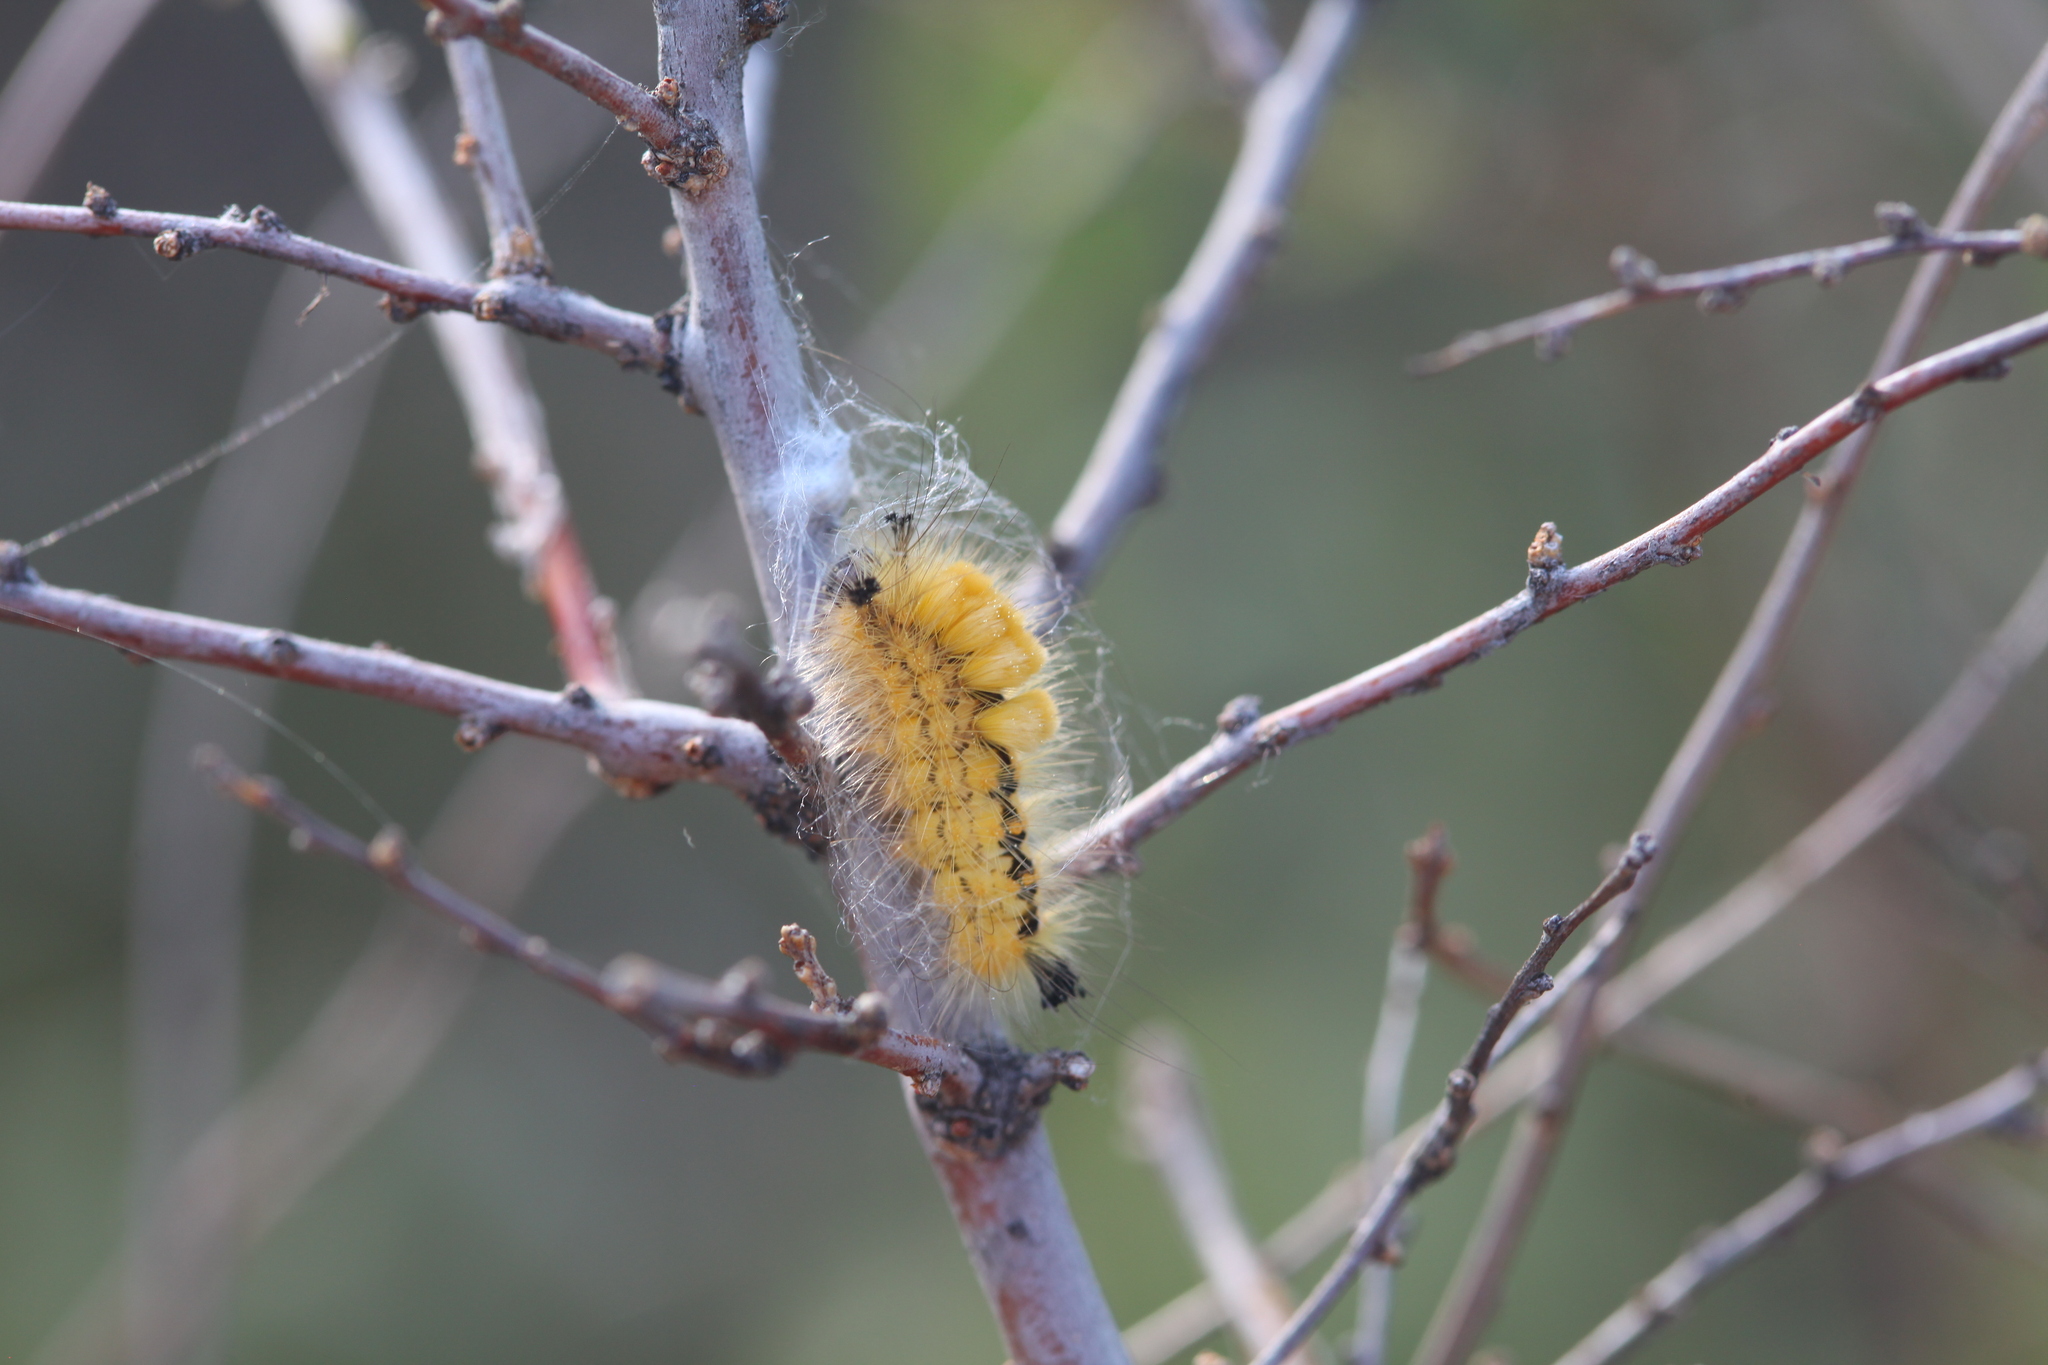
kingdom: Animalia
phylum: Arthropoda
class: Insecta
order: Lepidoptera
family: Erebidae
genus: Orgyia
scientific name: Orgyia antiquoides
